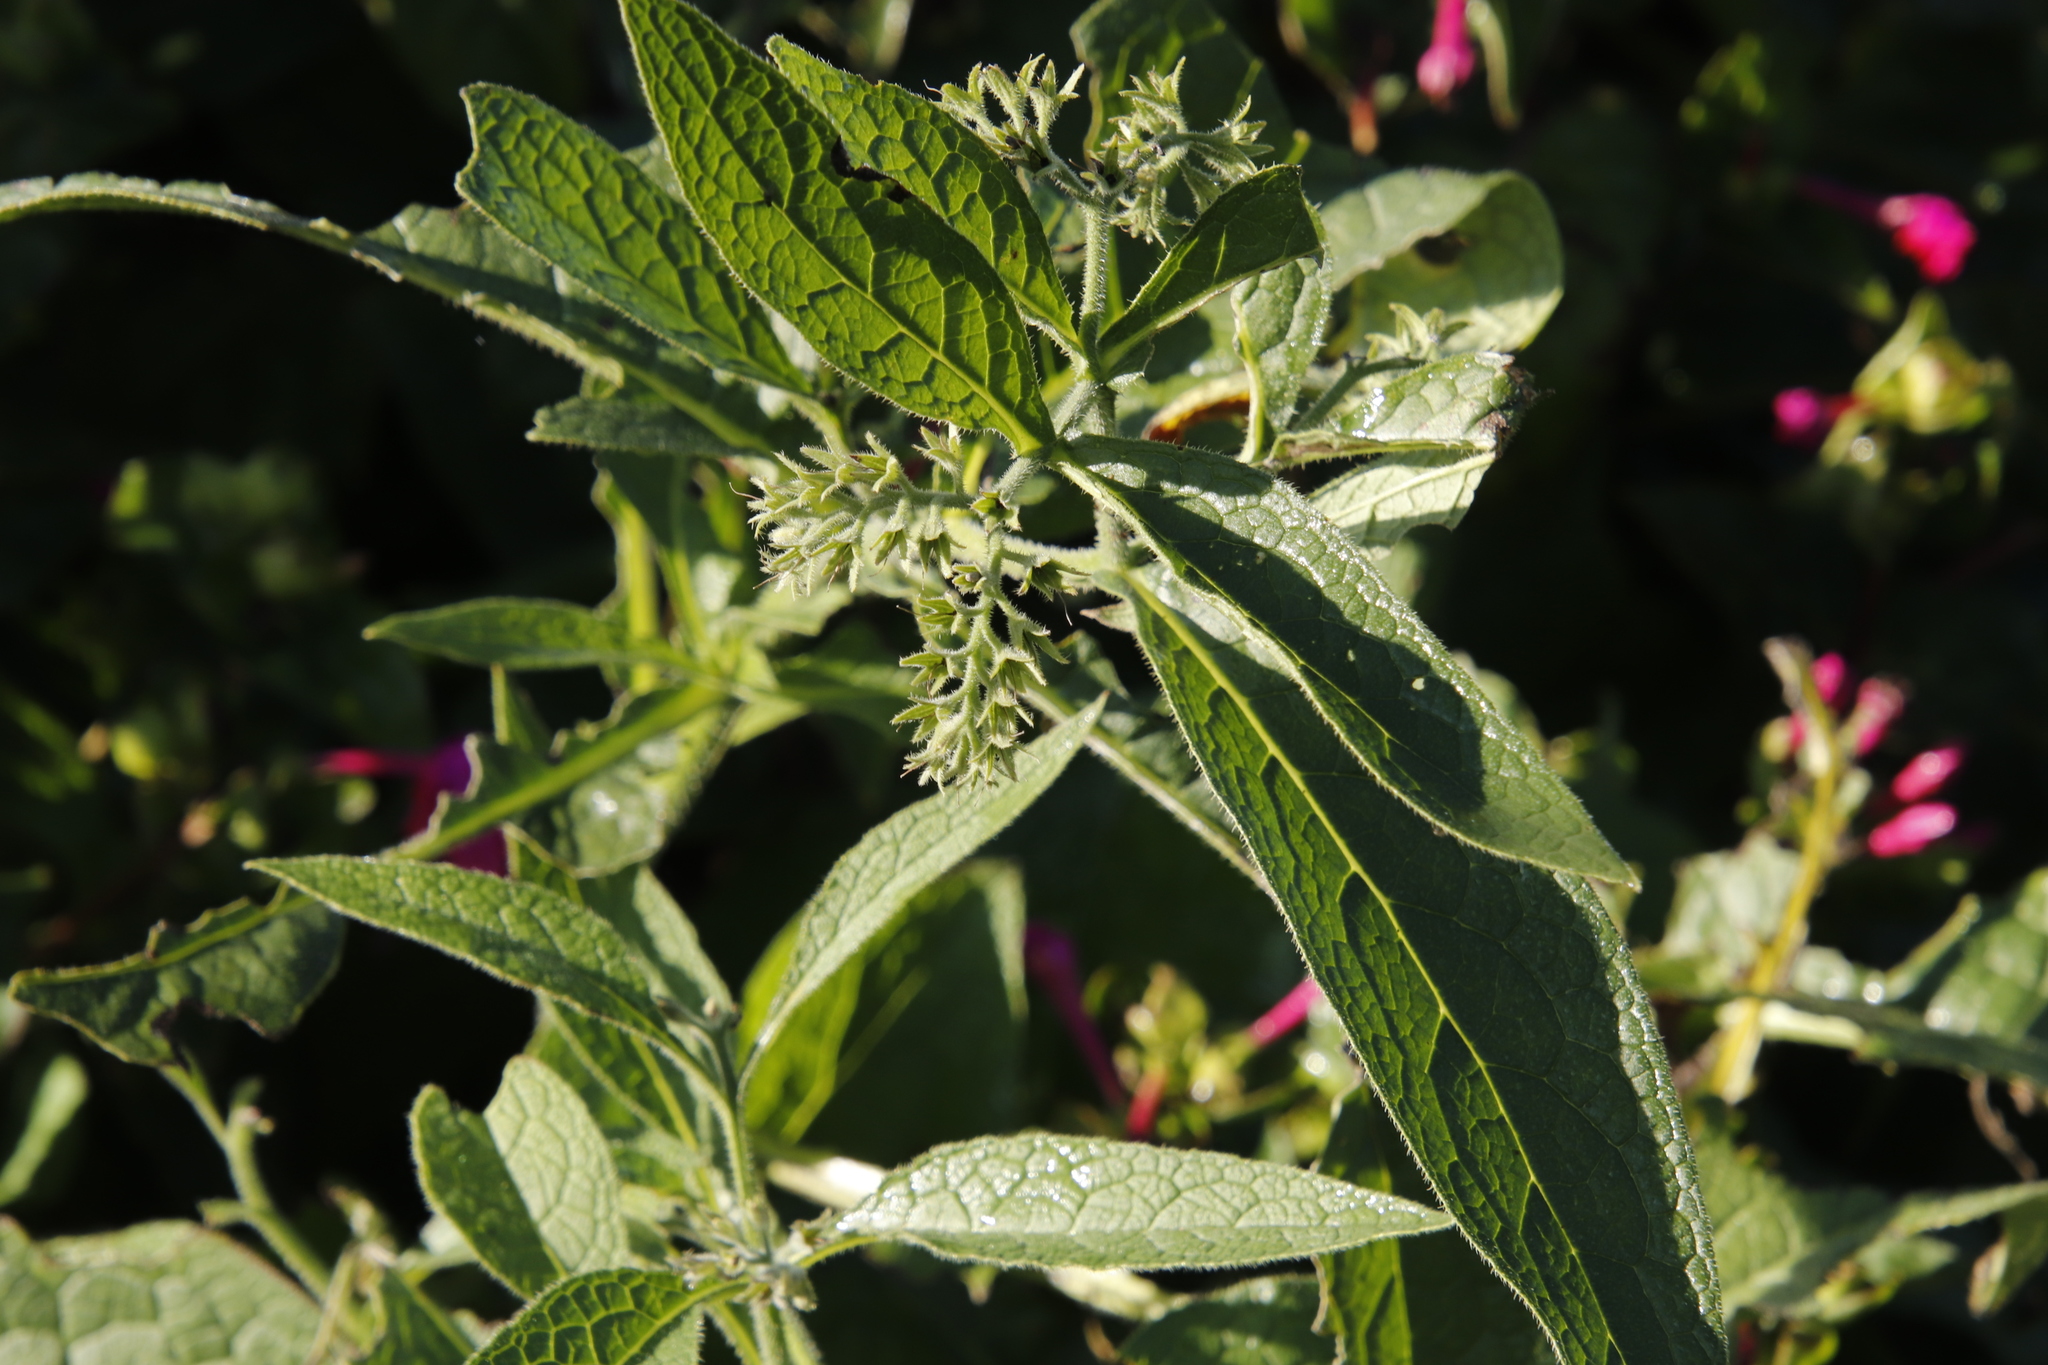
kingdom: Plantae
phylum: Tracheophyta
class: Magnoliopsida
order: Boraginales
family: Boraginaceae
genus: Symphytum
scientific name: Symphytum officinale
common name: Common comfrey
